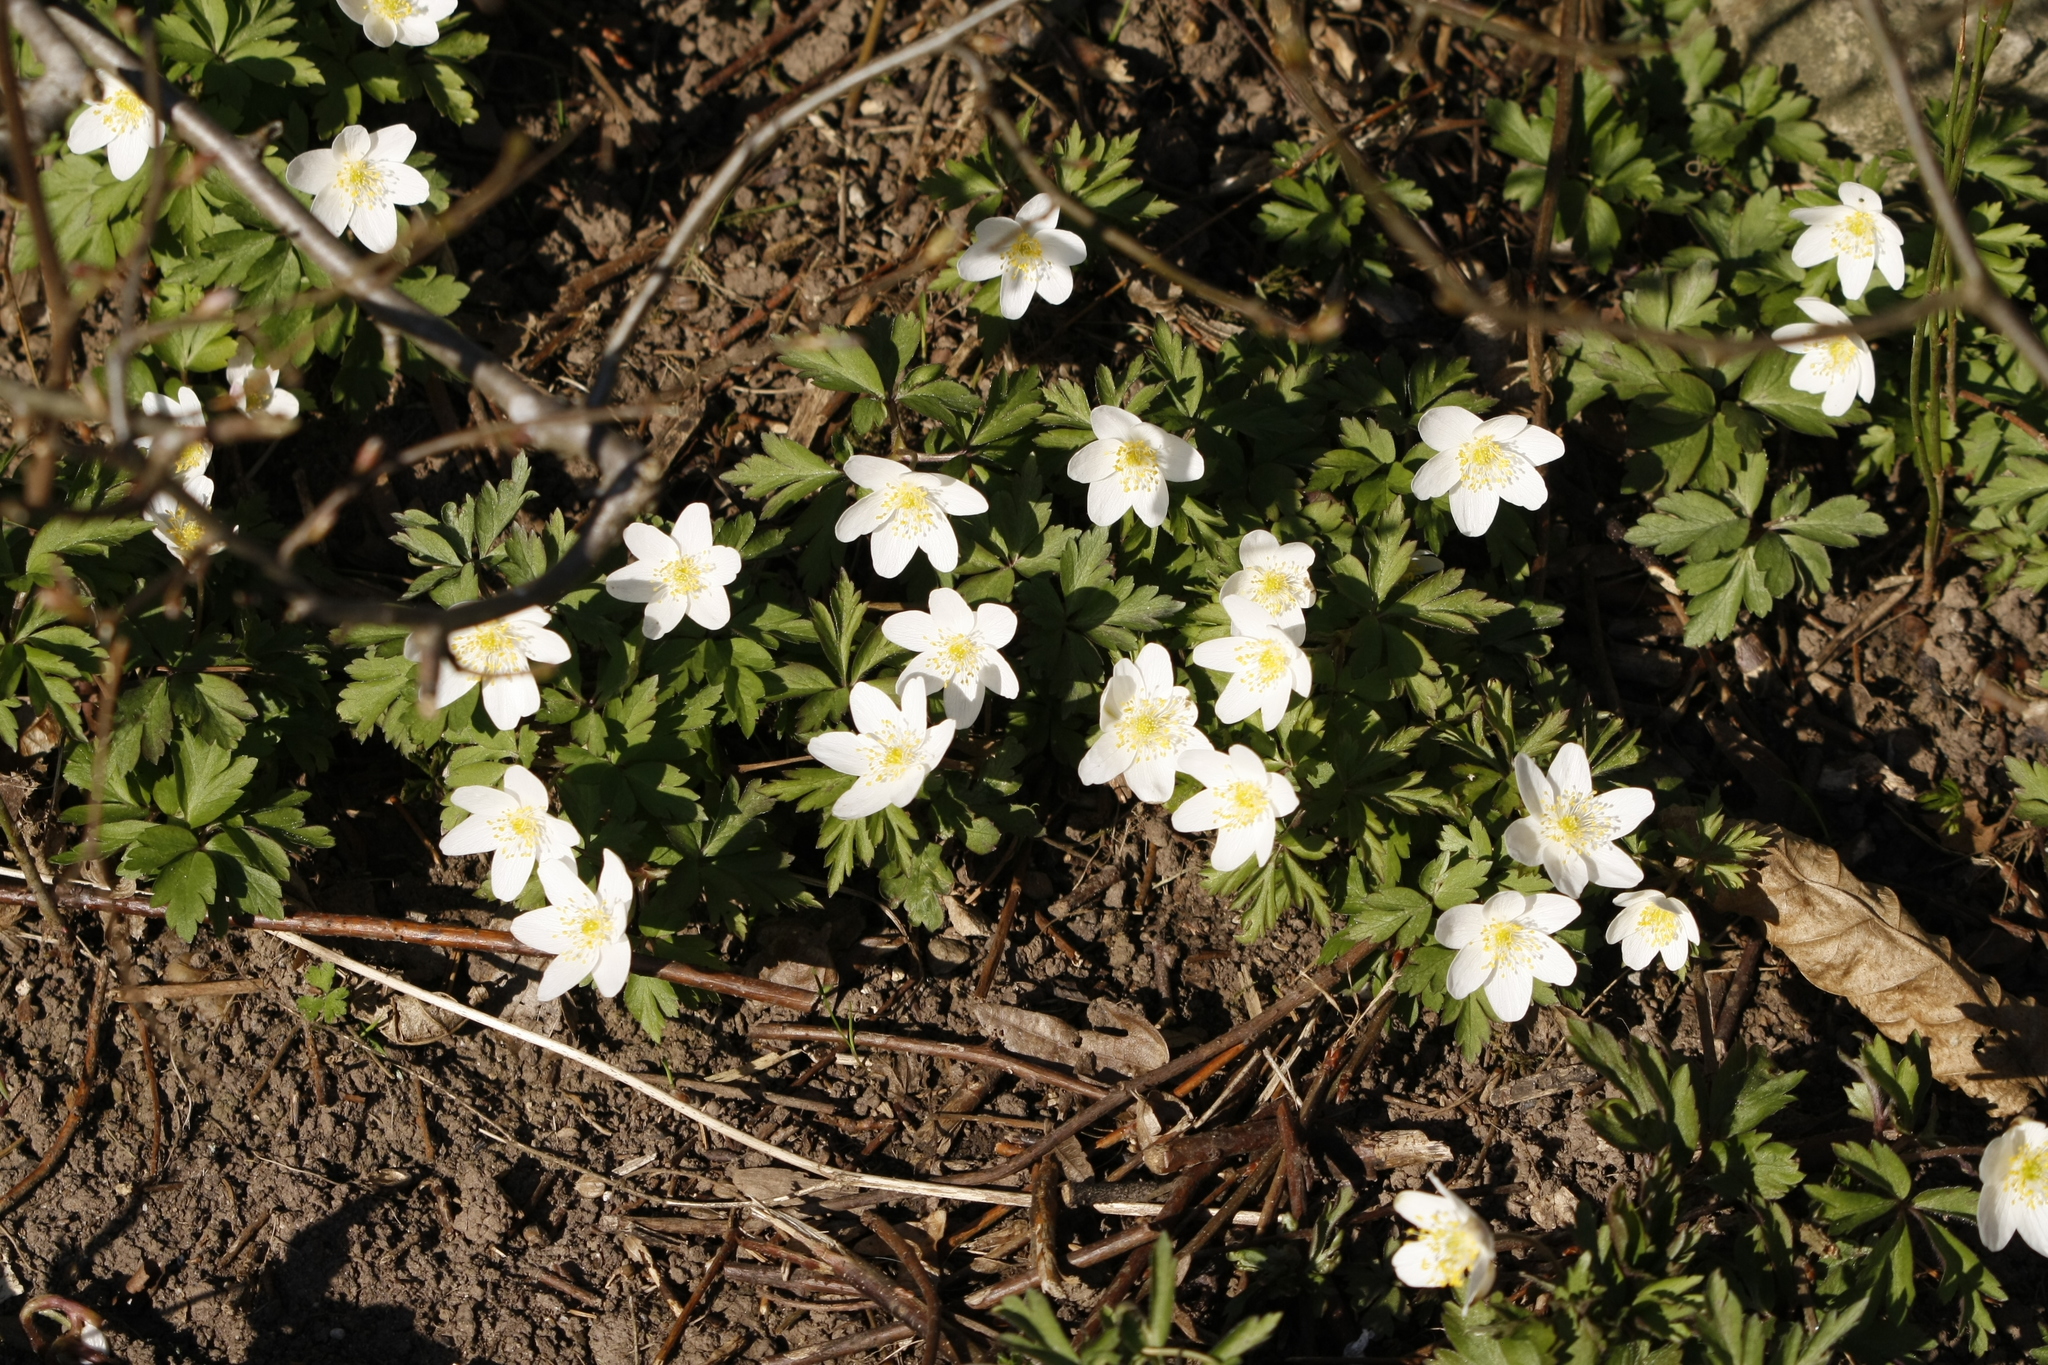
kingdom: Plantae
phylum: Tracheophyta
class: Magnoliopsida
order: Ranunculales
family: Ranunculaceae
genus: Anemone
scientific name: Anemone nemorosa
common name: Wood anemone
